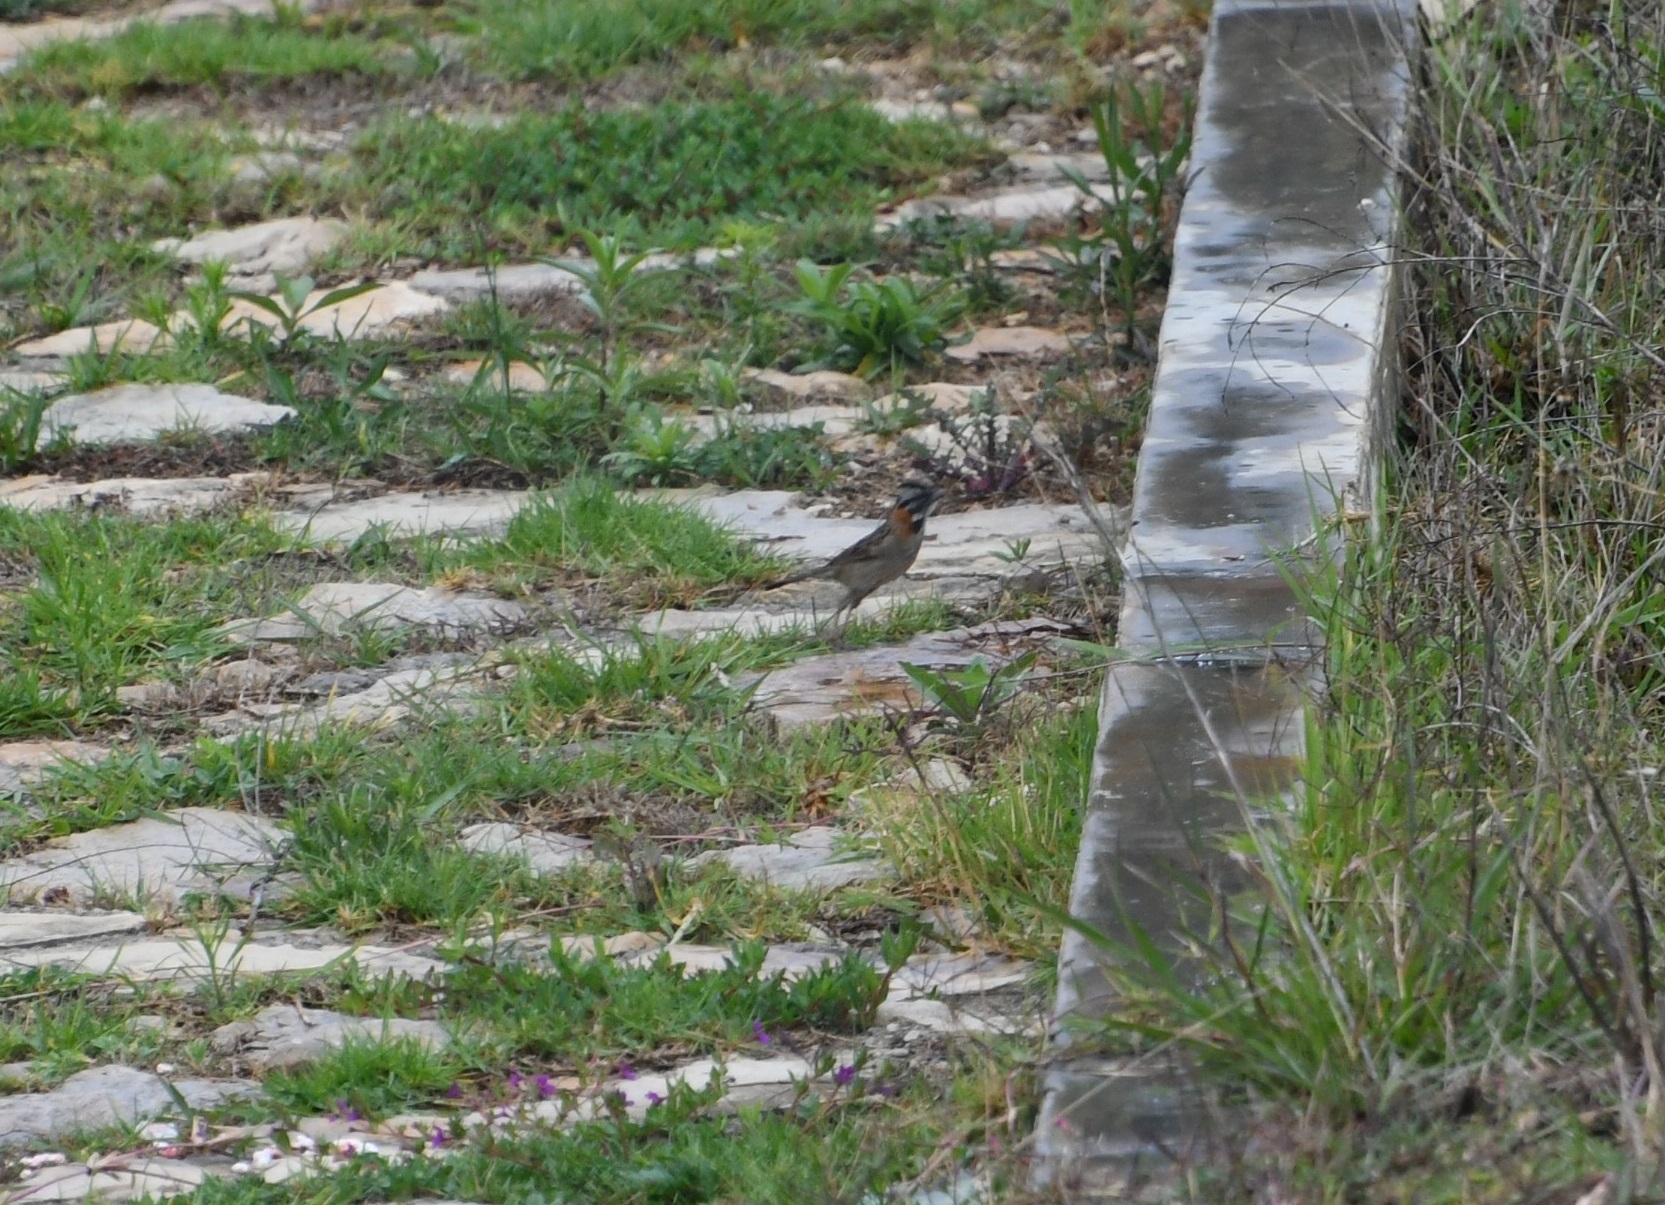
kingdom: Animalia
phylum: Chordata
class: Aves
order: Passeriformes
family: Passerellidae
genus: Zonotrichia
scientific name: Zonotrichia capensis
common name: Rufous-collared sparrow
